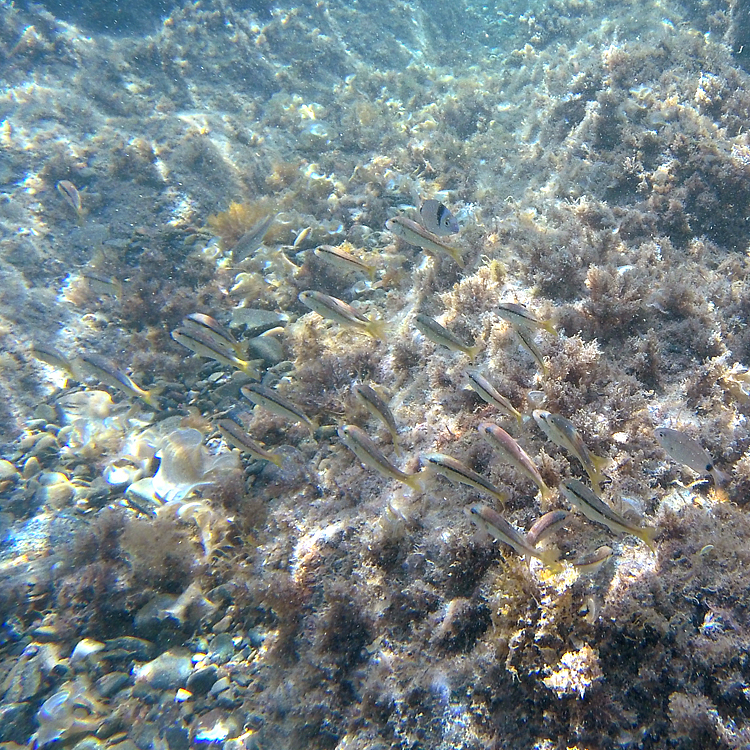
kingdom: Animalia
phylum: Chordata
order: Perciformes
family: Mullidae
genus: Mullus
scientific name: Mullus surmuletus
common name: Red mullet
